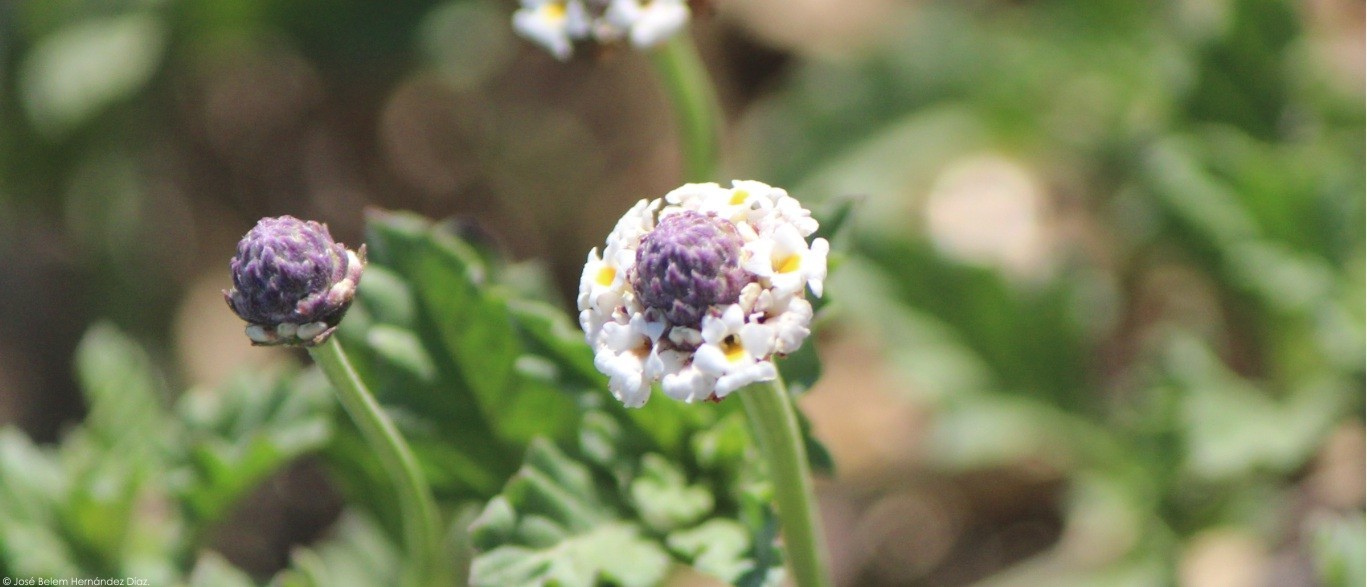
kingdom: Plantae
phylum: Tracheophyta
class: Magnoliopsida
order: Lamiales
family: Verbenaceae
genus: Phyla
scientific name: Phyla nodiflora
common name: Frogfruit
